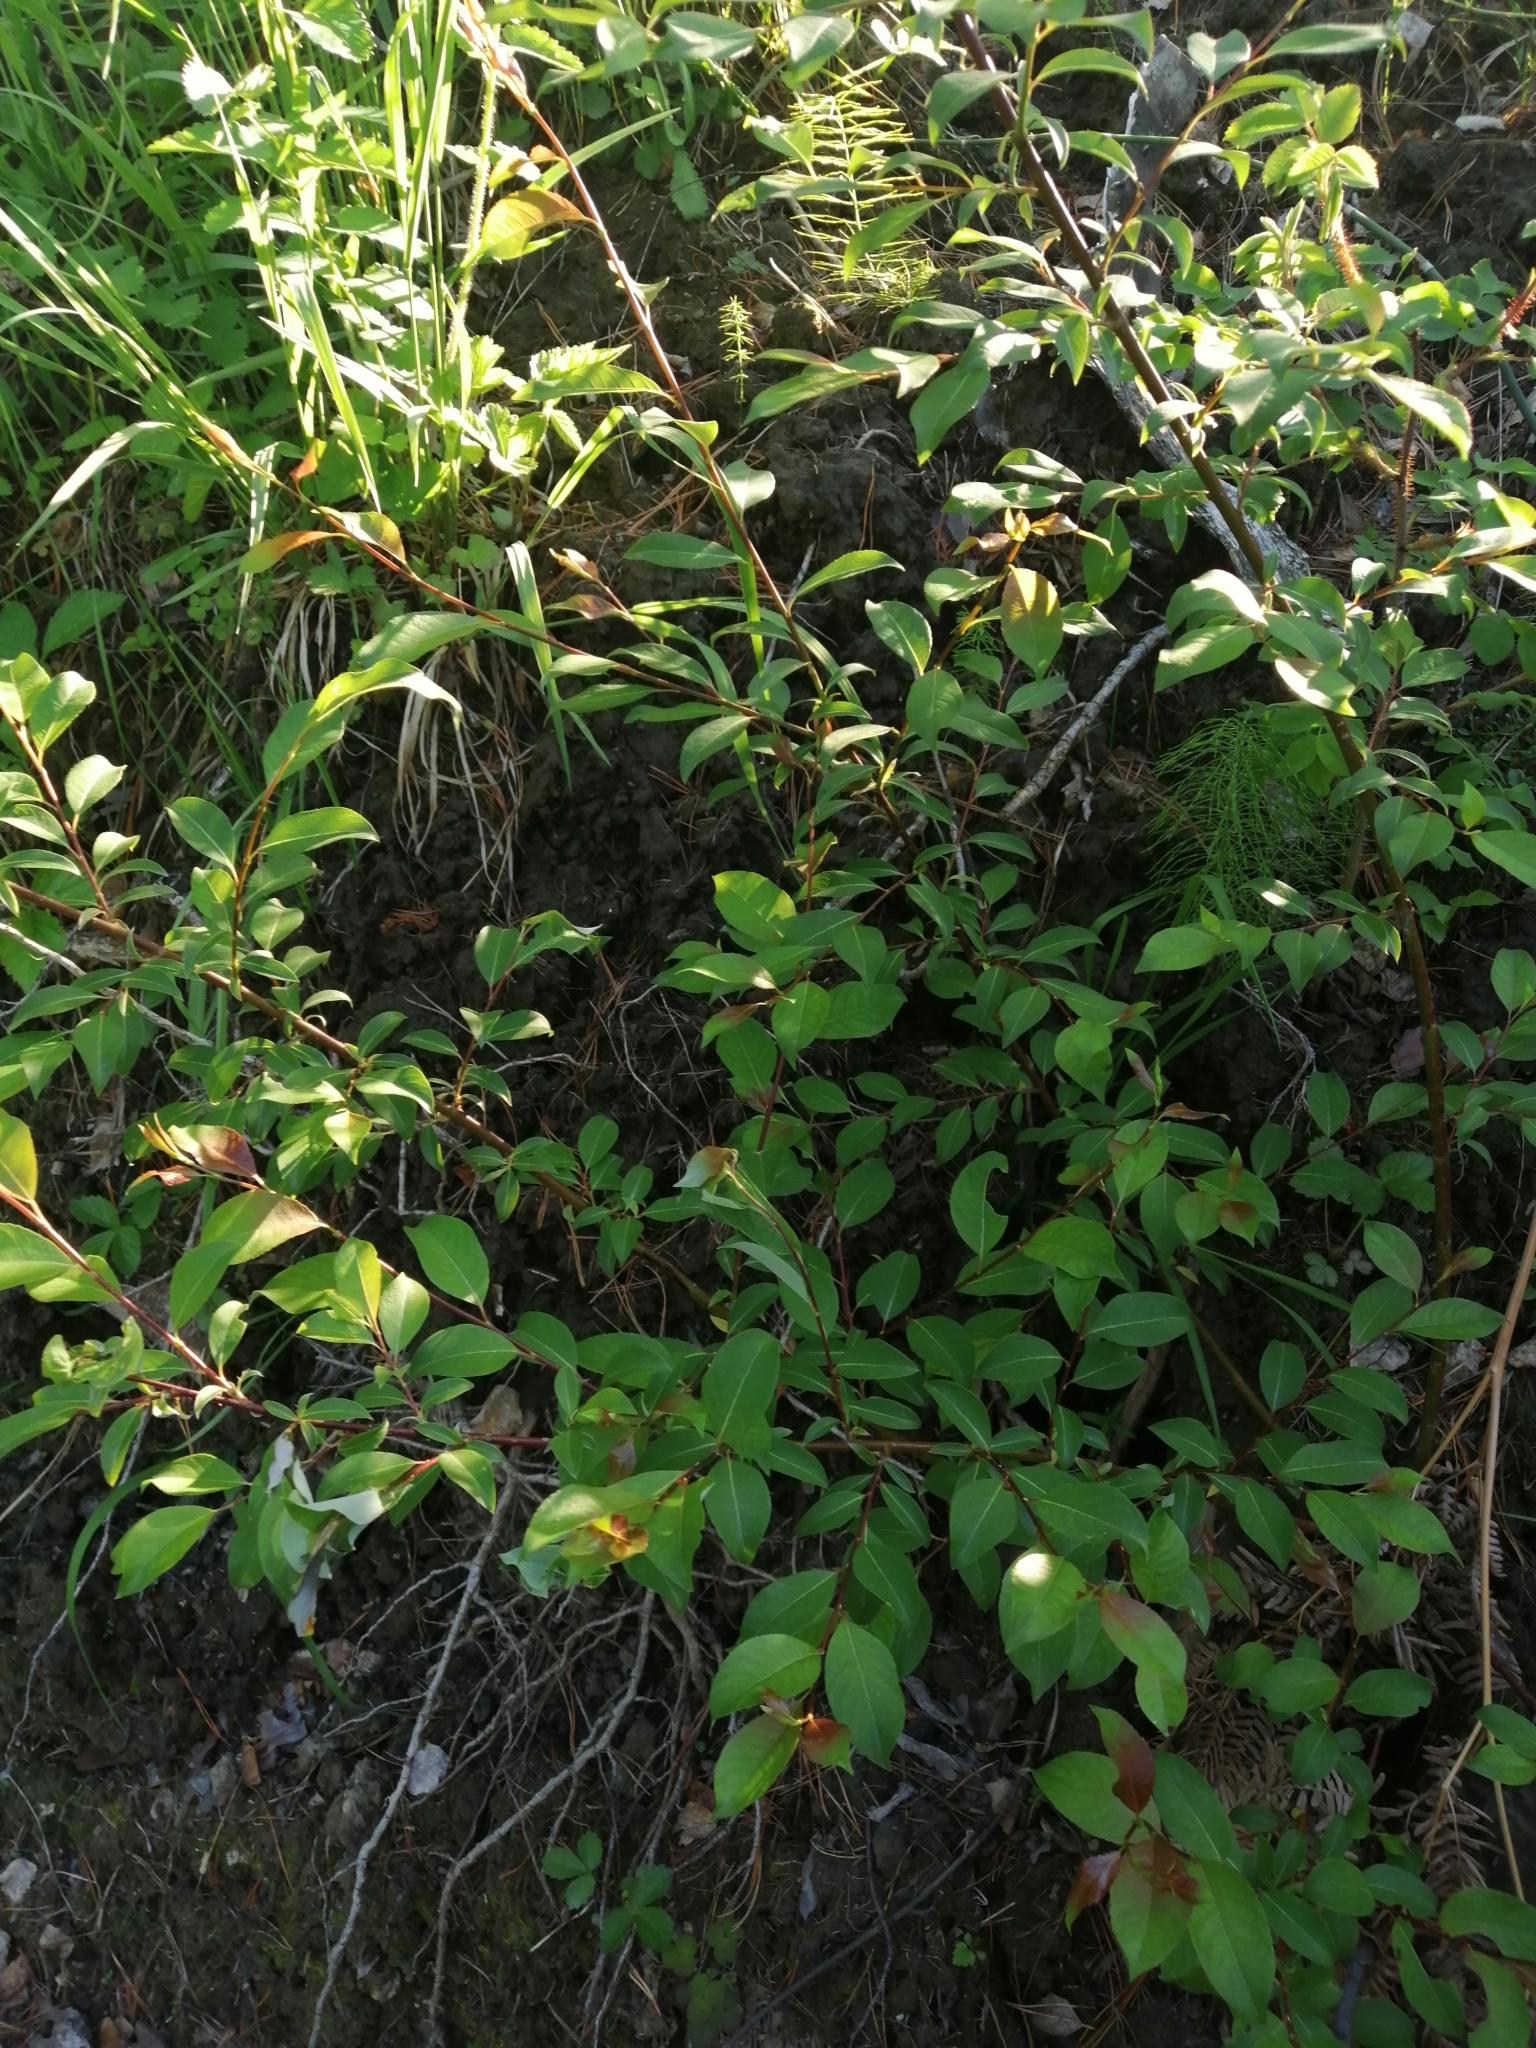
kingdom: Plantae
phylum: Tracheophyta
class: Magnoliopsida
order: Malpighiales
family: Salicaceae
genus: Salix
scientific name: Salix taraikensis
